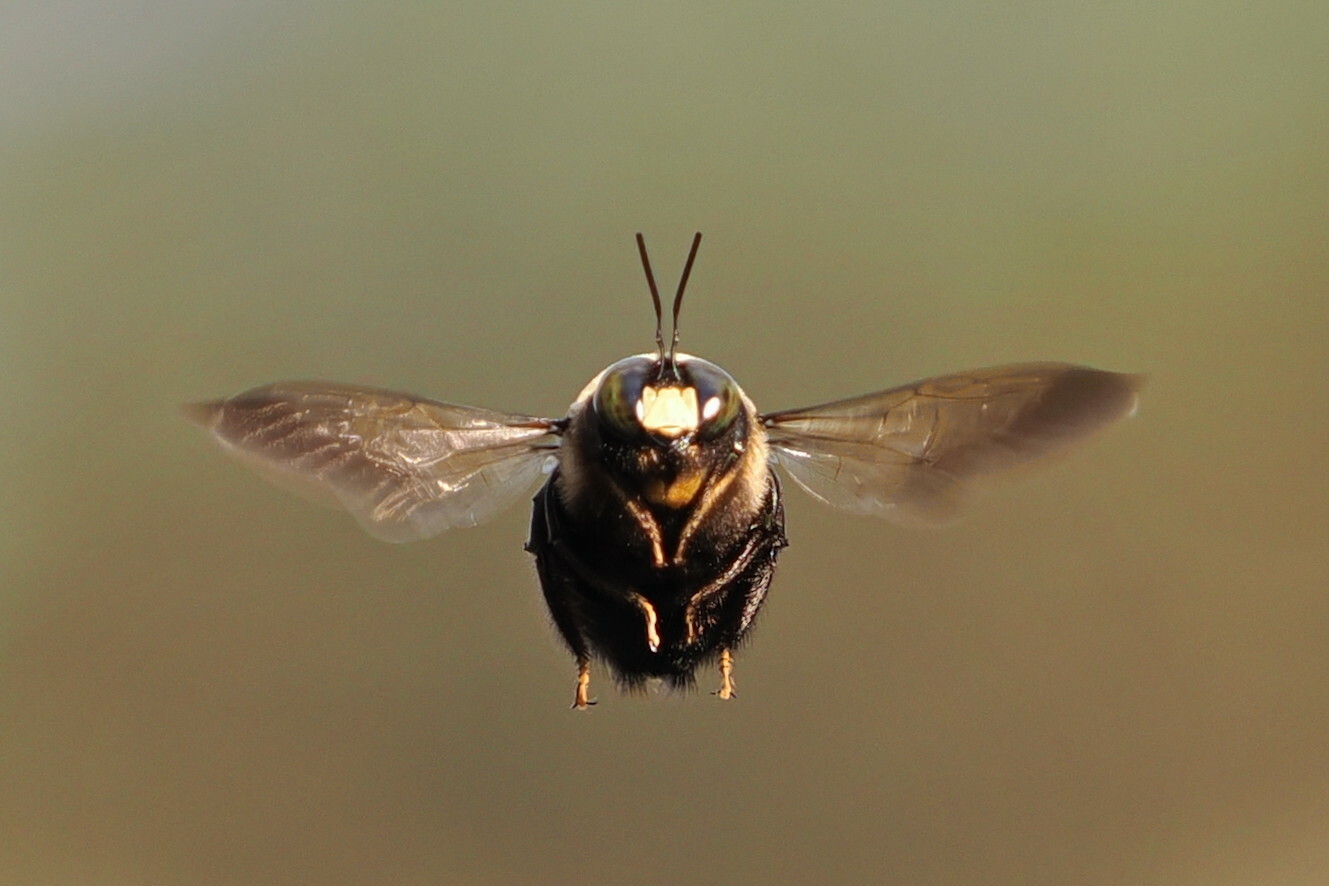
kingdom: Animalia
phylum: Arthropoda
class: Insecta
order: Hymenoptera
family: Apidae
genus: Xylocopa
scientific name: Xylocopa virginica
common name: Carpenter bee
